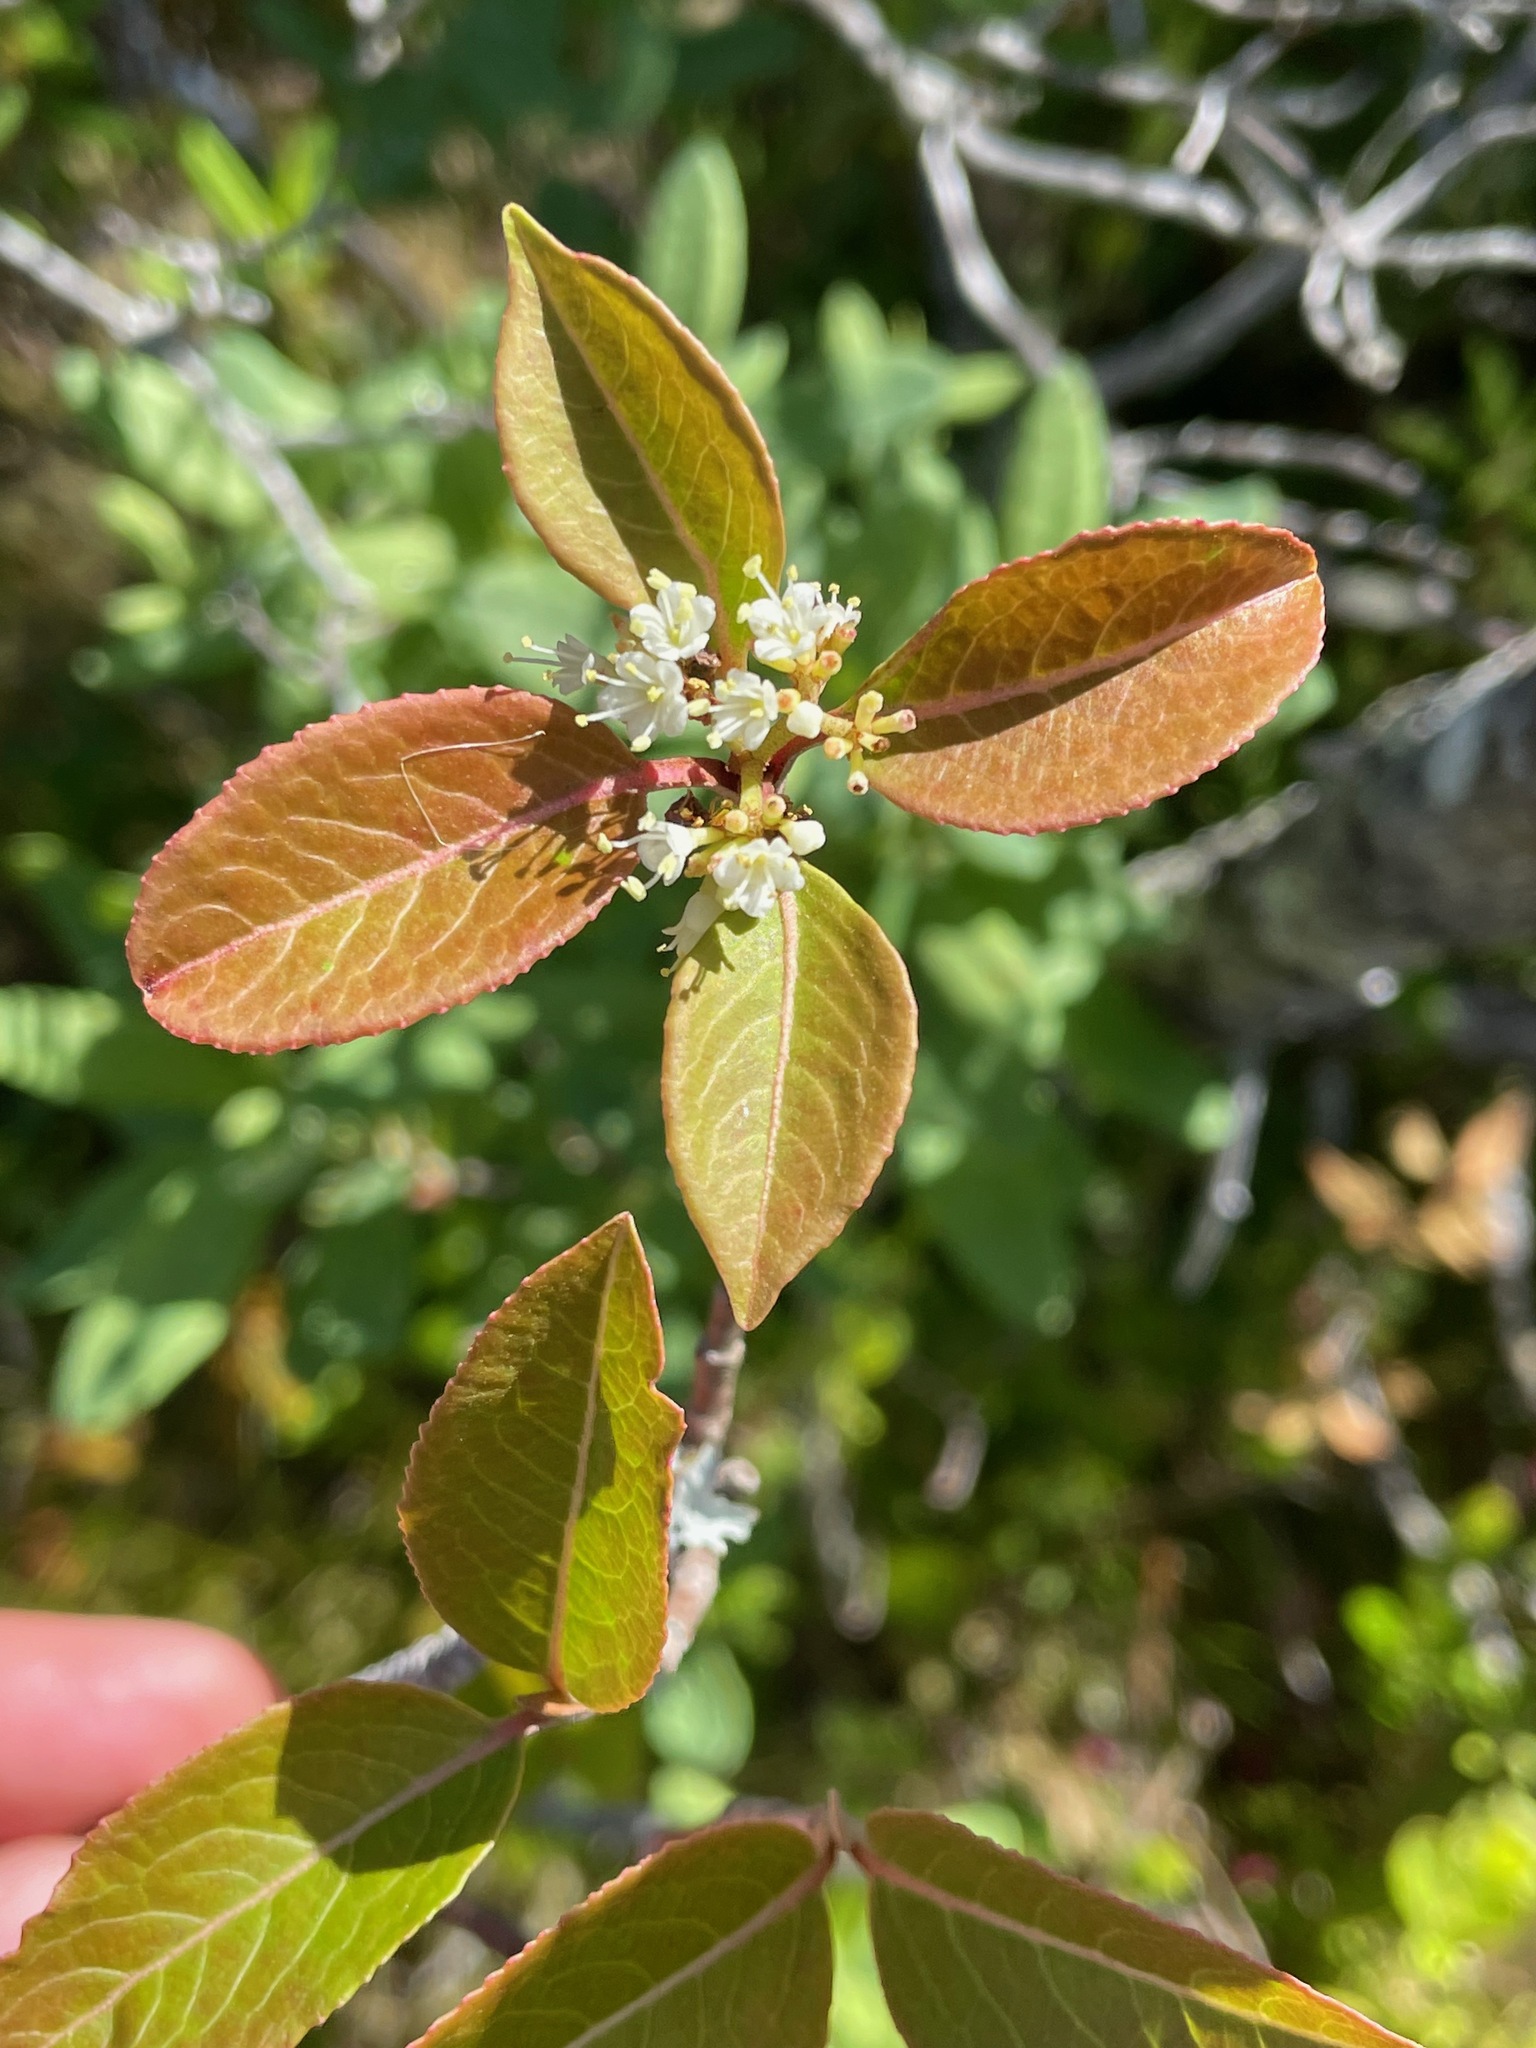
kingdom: Plantae
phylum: Tracheophyta
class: Magnoliopsida
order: Dipsacales
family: Viburnaceae
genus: Viburnum
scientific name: Viburnum cassinoides
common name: Swamp haw
